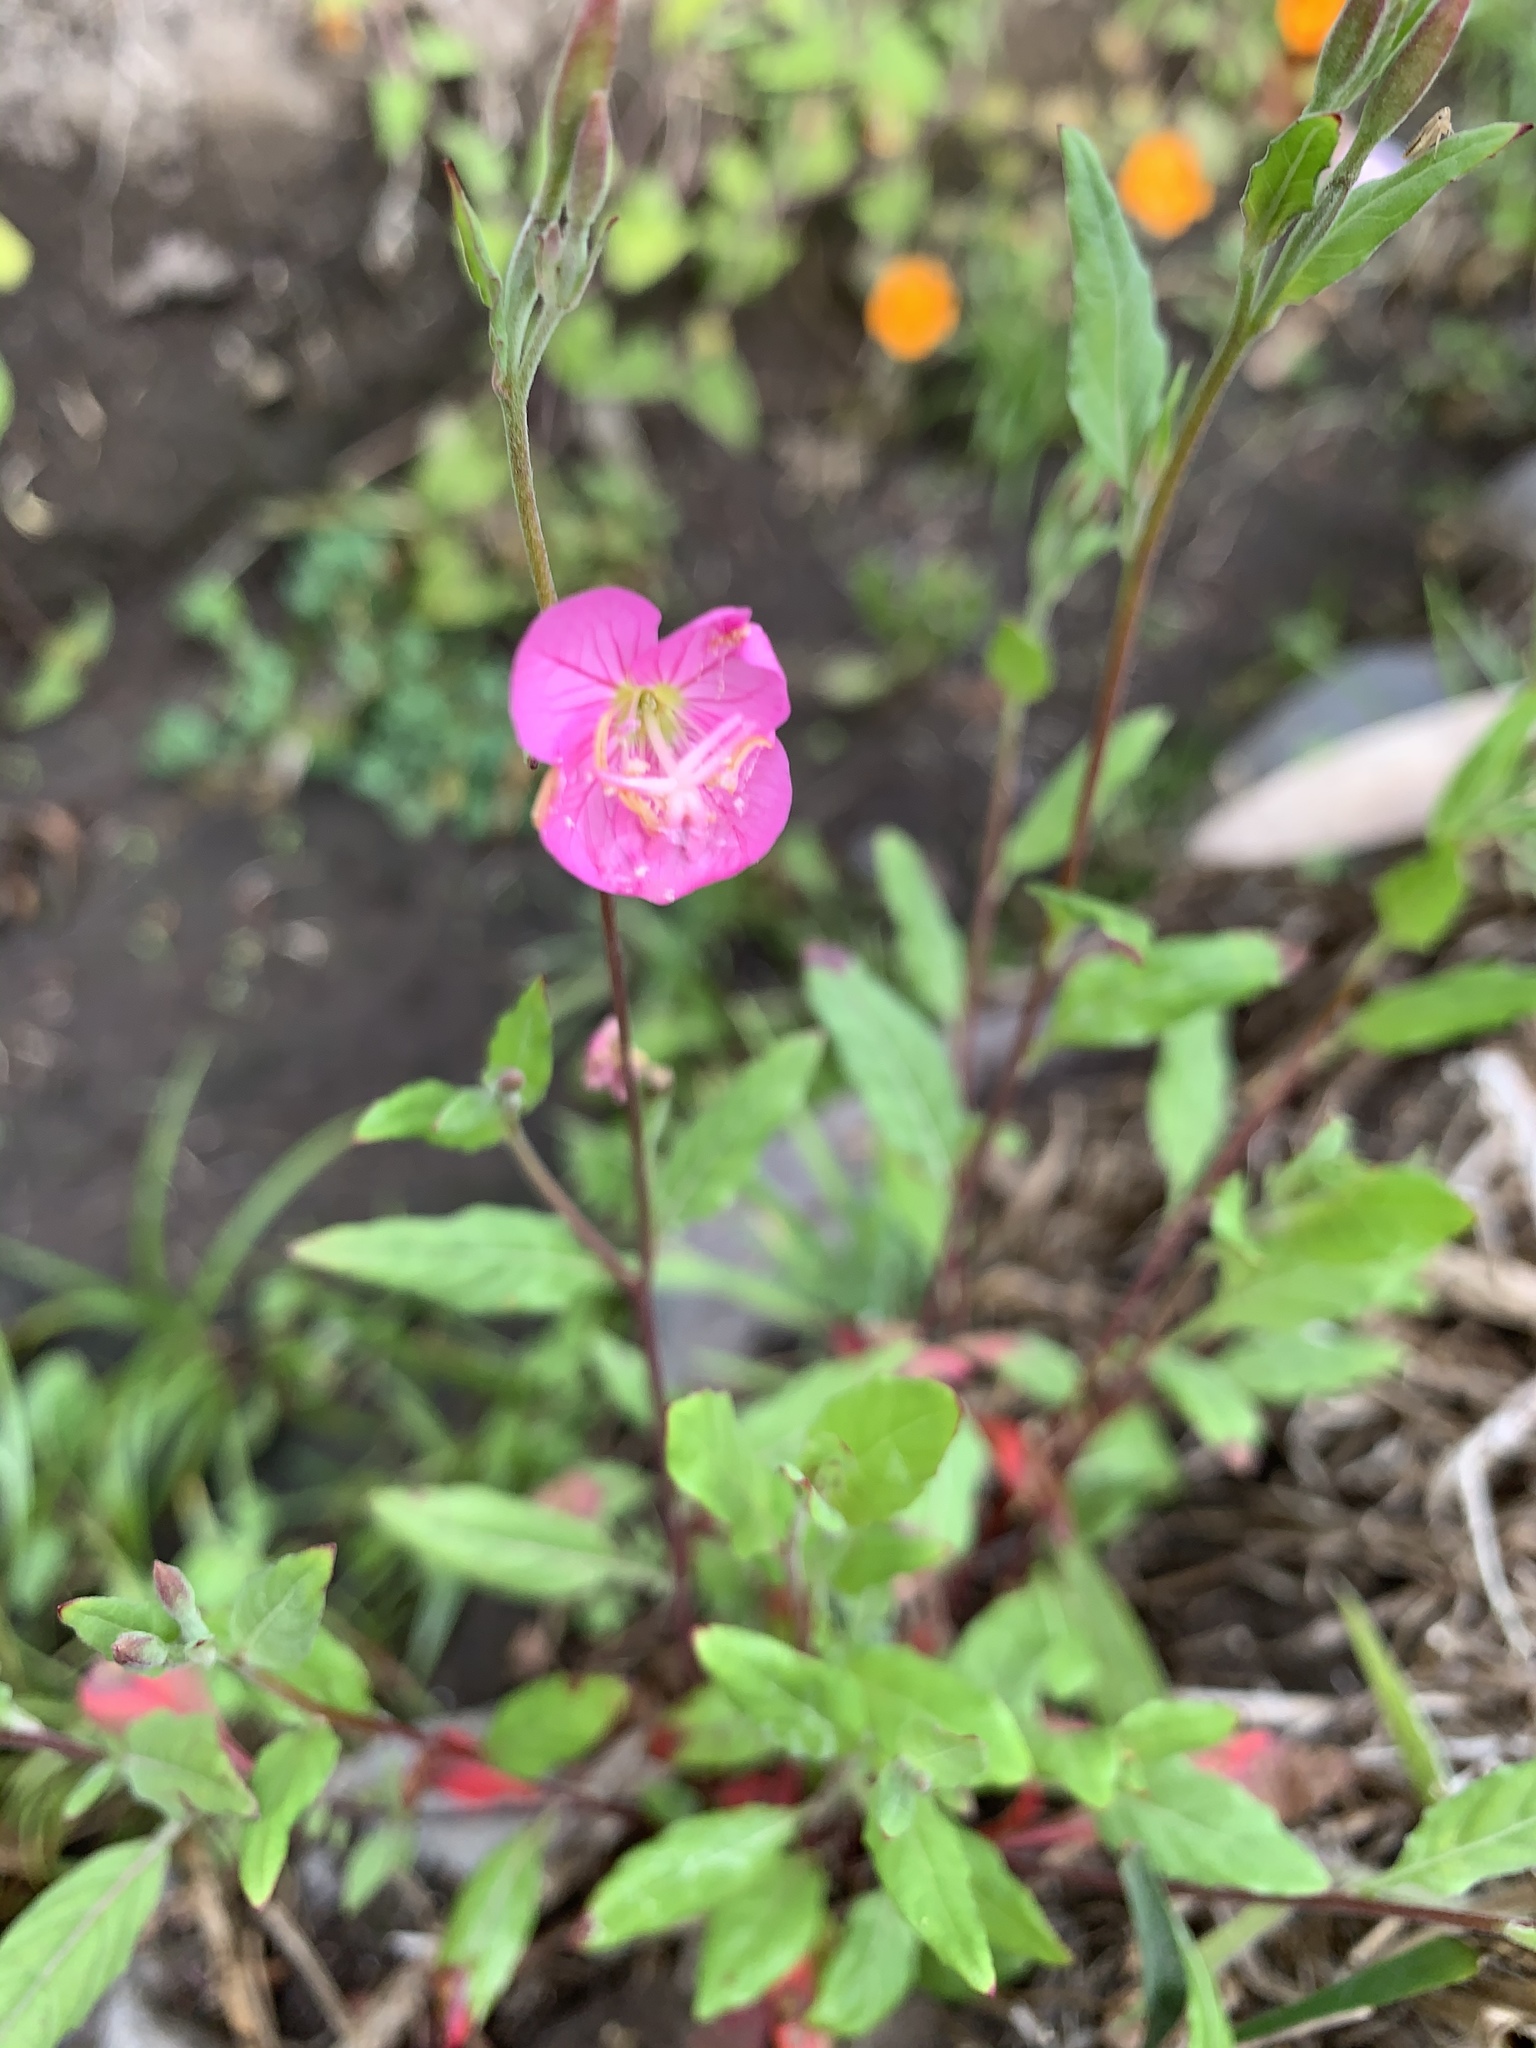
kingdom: Plantae
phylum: Tracheophyta
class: Magnoliopsida
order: Myrtales
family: Onagraceae
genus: Oenothera
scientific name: Oenothera rosea
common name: Rosy evening-primrose
